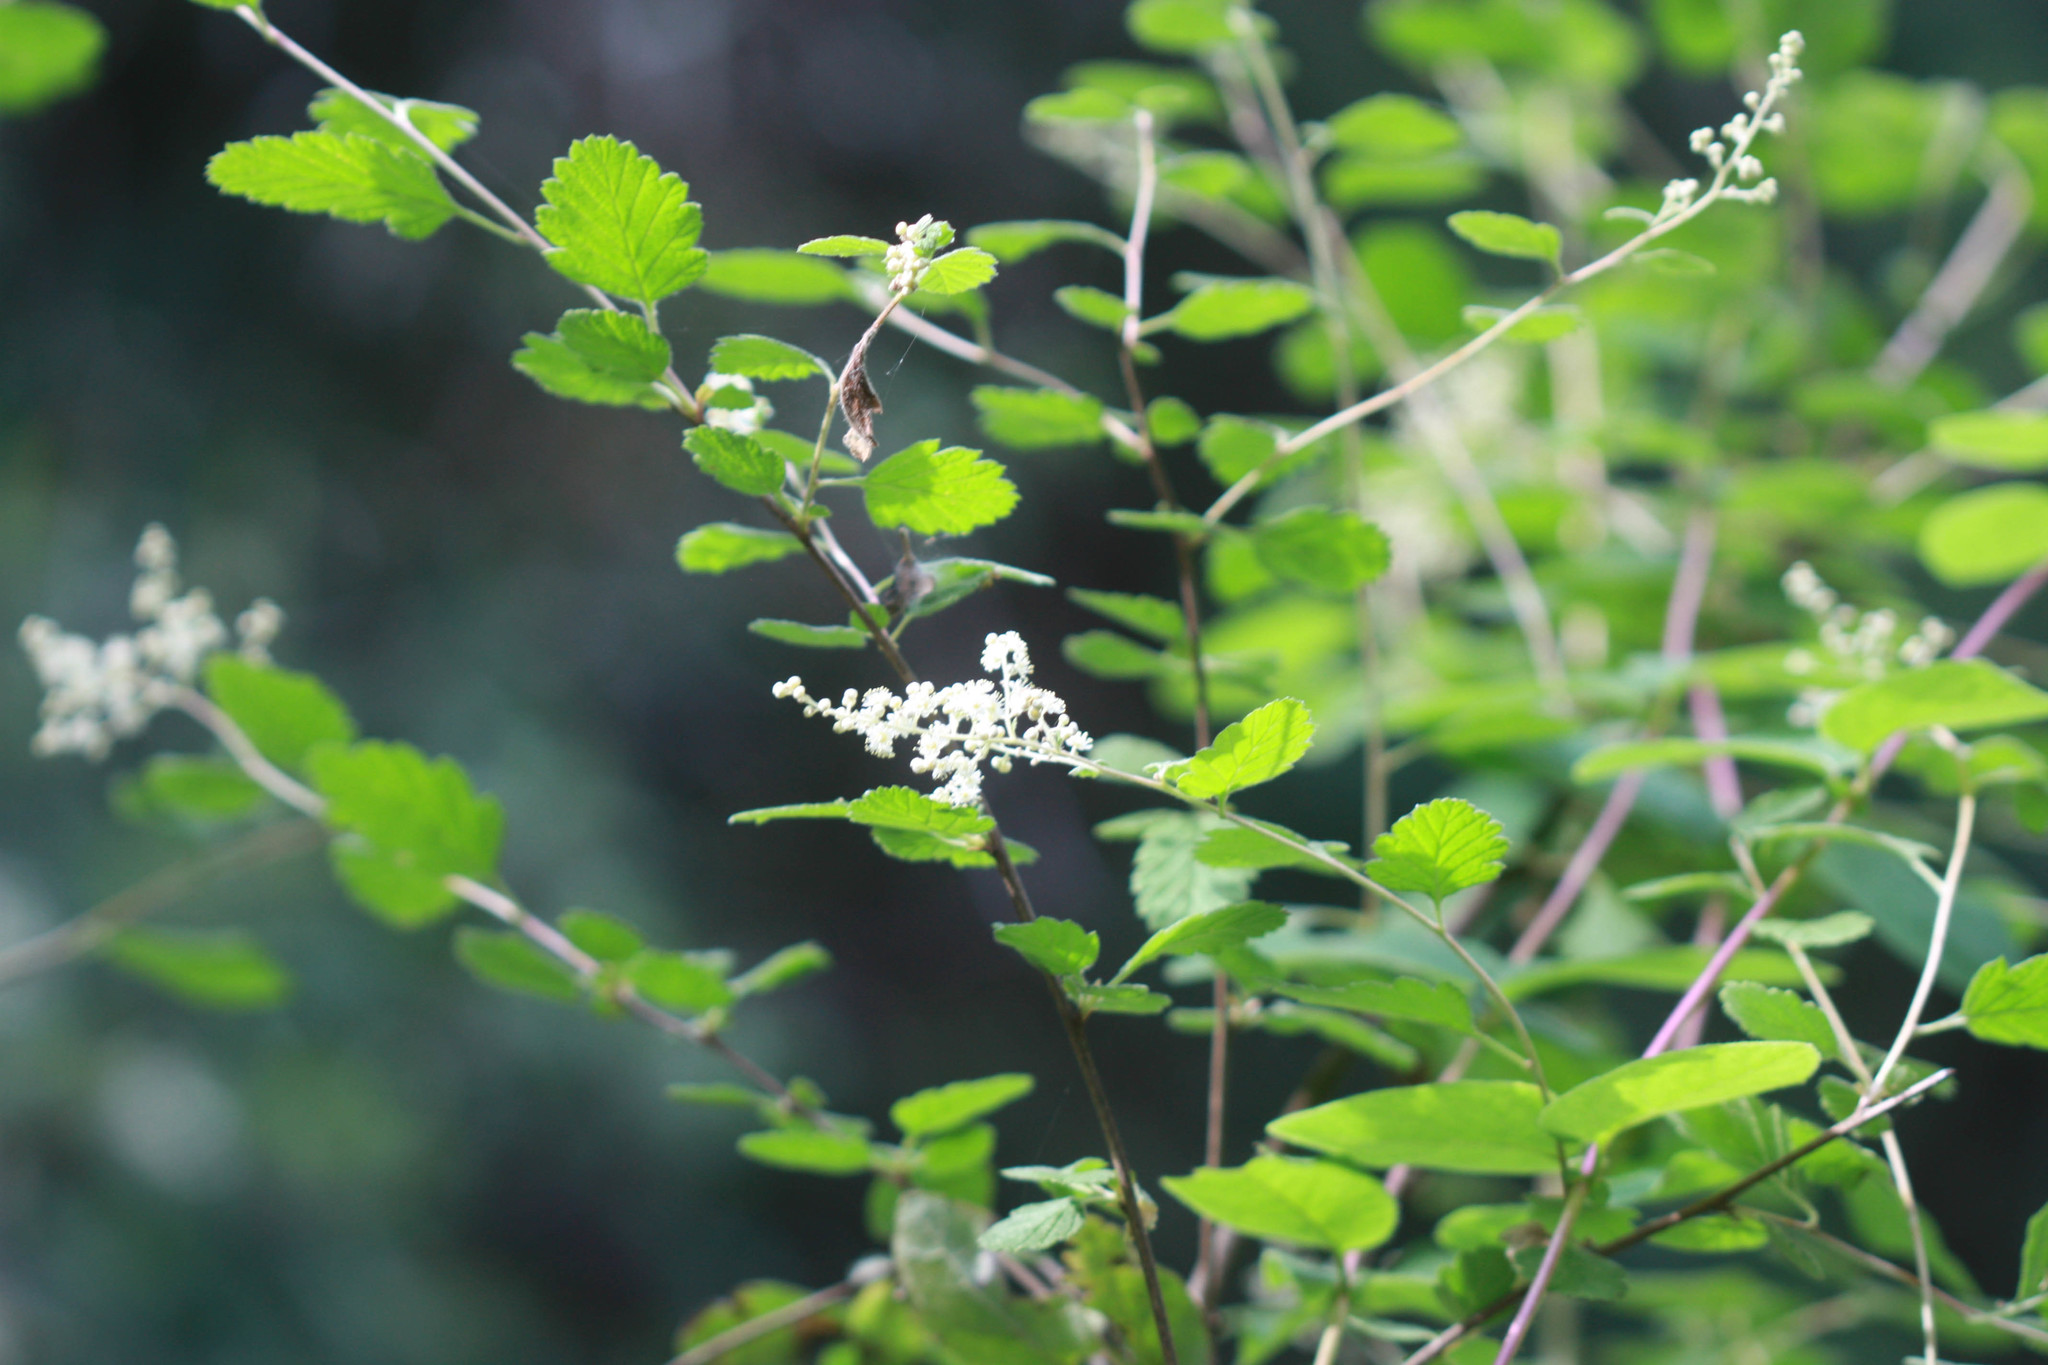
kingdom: Plantae
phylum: Tracheophyta
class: Magnoliopsida
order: Rosales
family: Rosaceae
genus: Holodiscus
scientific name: Holodiscus discolor
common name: Oceanspray
